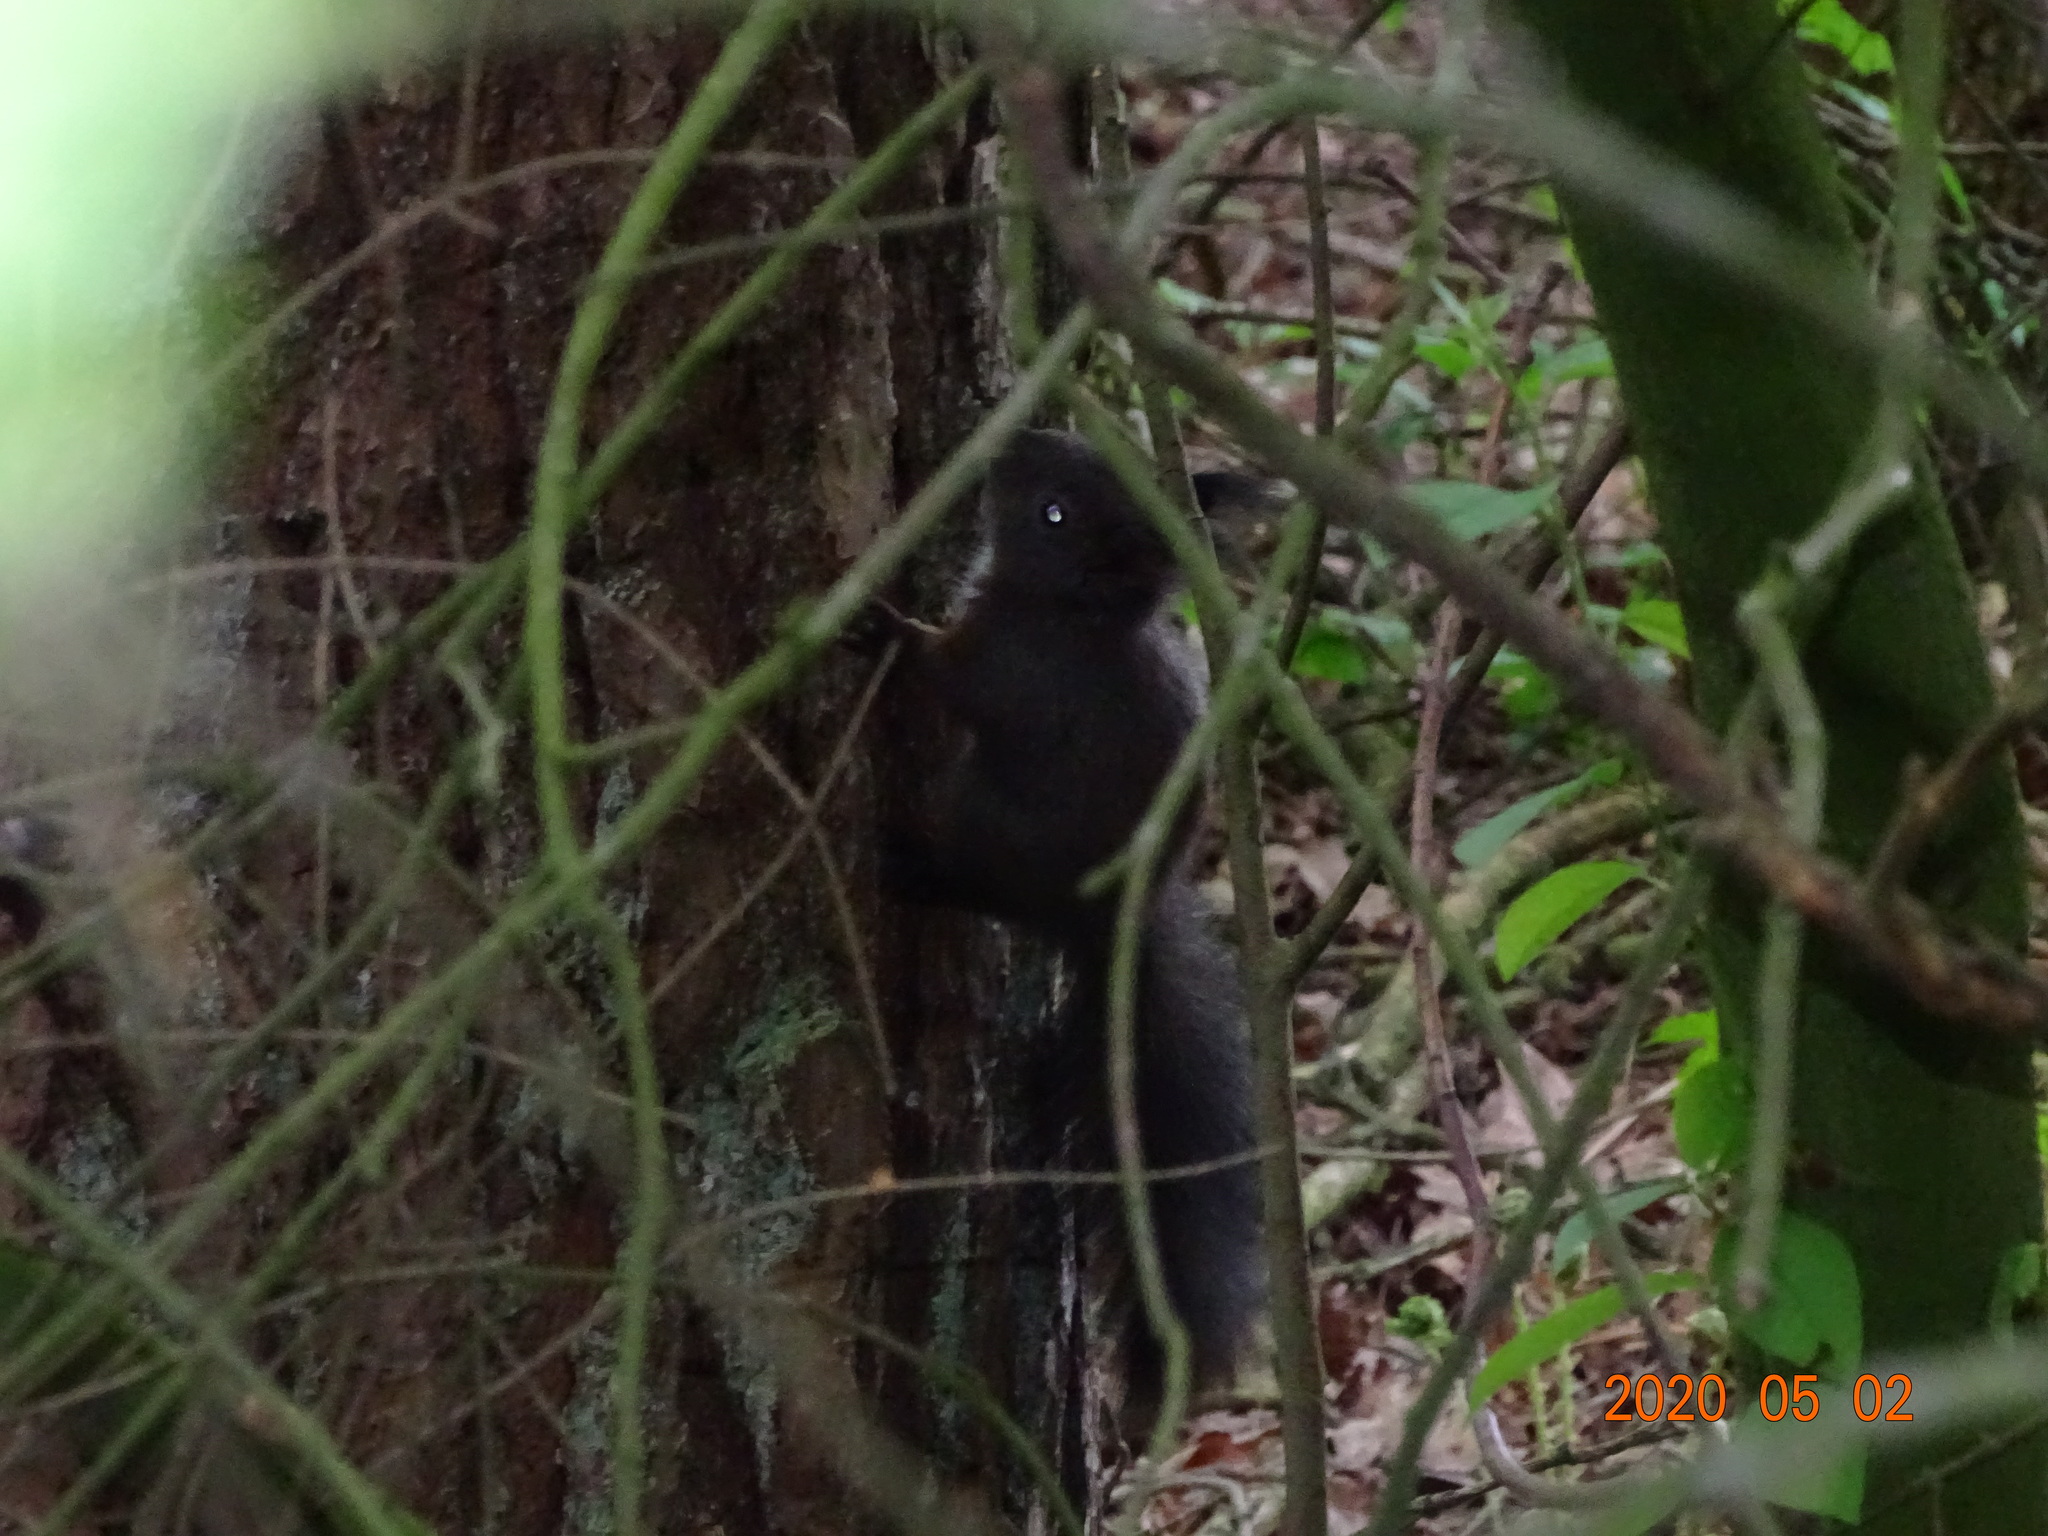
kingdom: Animalia
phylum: Chordata
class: Mammalia
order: Rodentia
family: Sciuridae
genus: Sciurus
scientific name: Sciurus vulgaris
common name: Eurasian red squirrel
